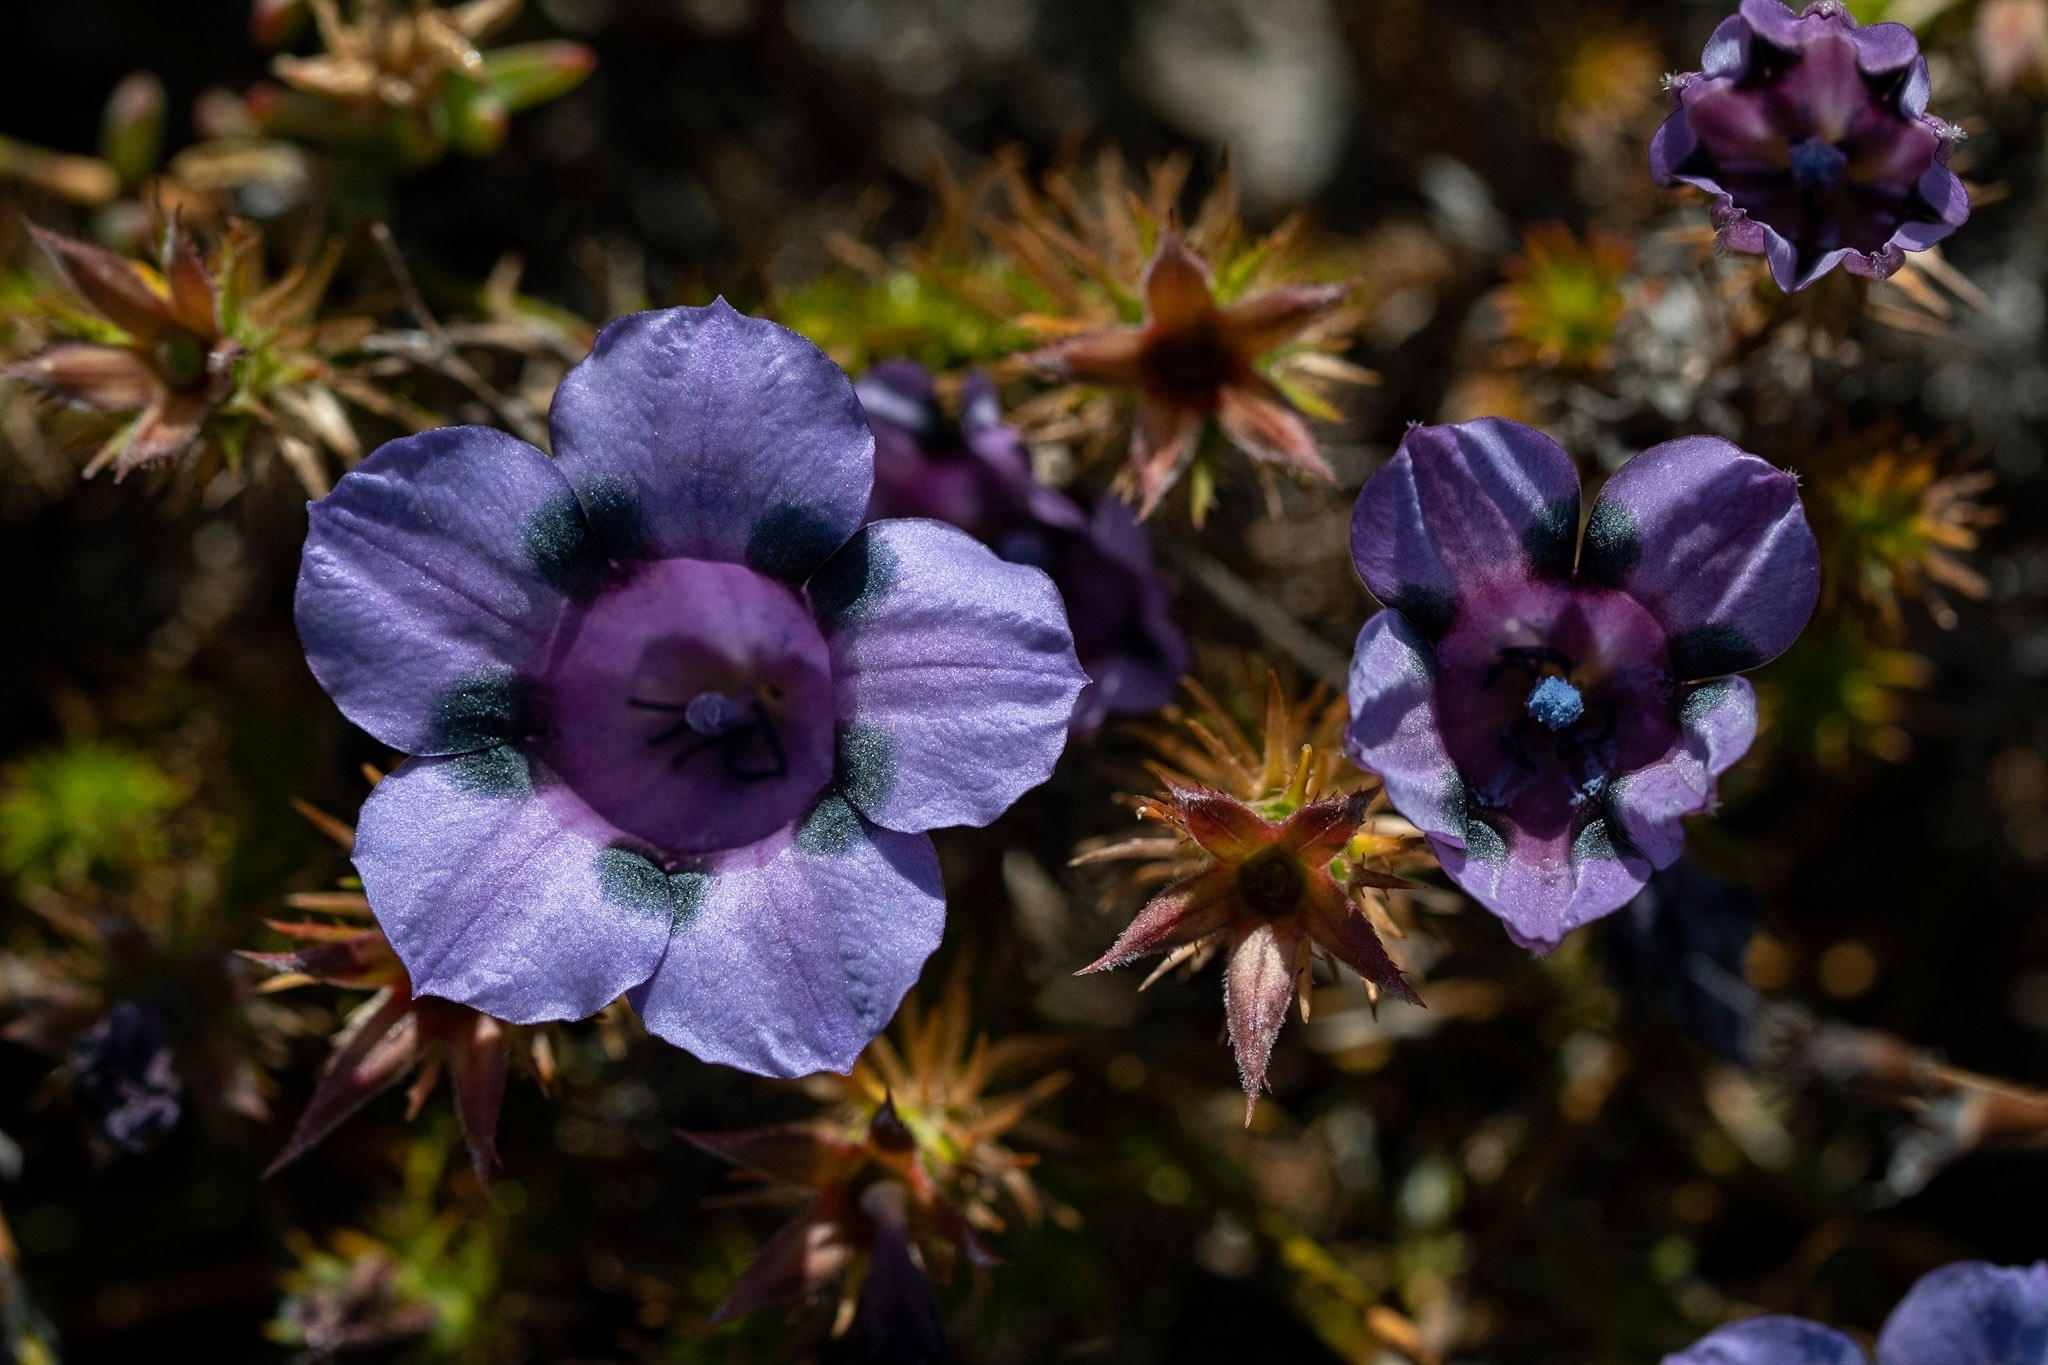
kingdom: Plantae
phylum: Tracheophyta
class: Magnoliopsida
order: Asterales
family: Campanulaceae
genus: Roella
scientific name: Roella maculata
